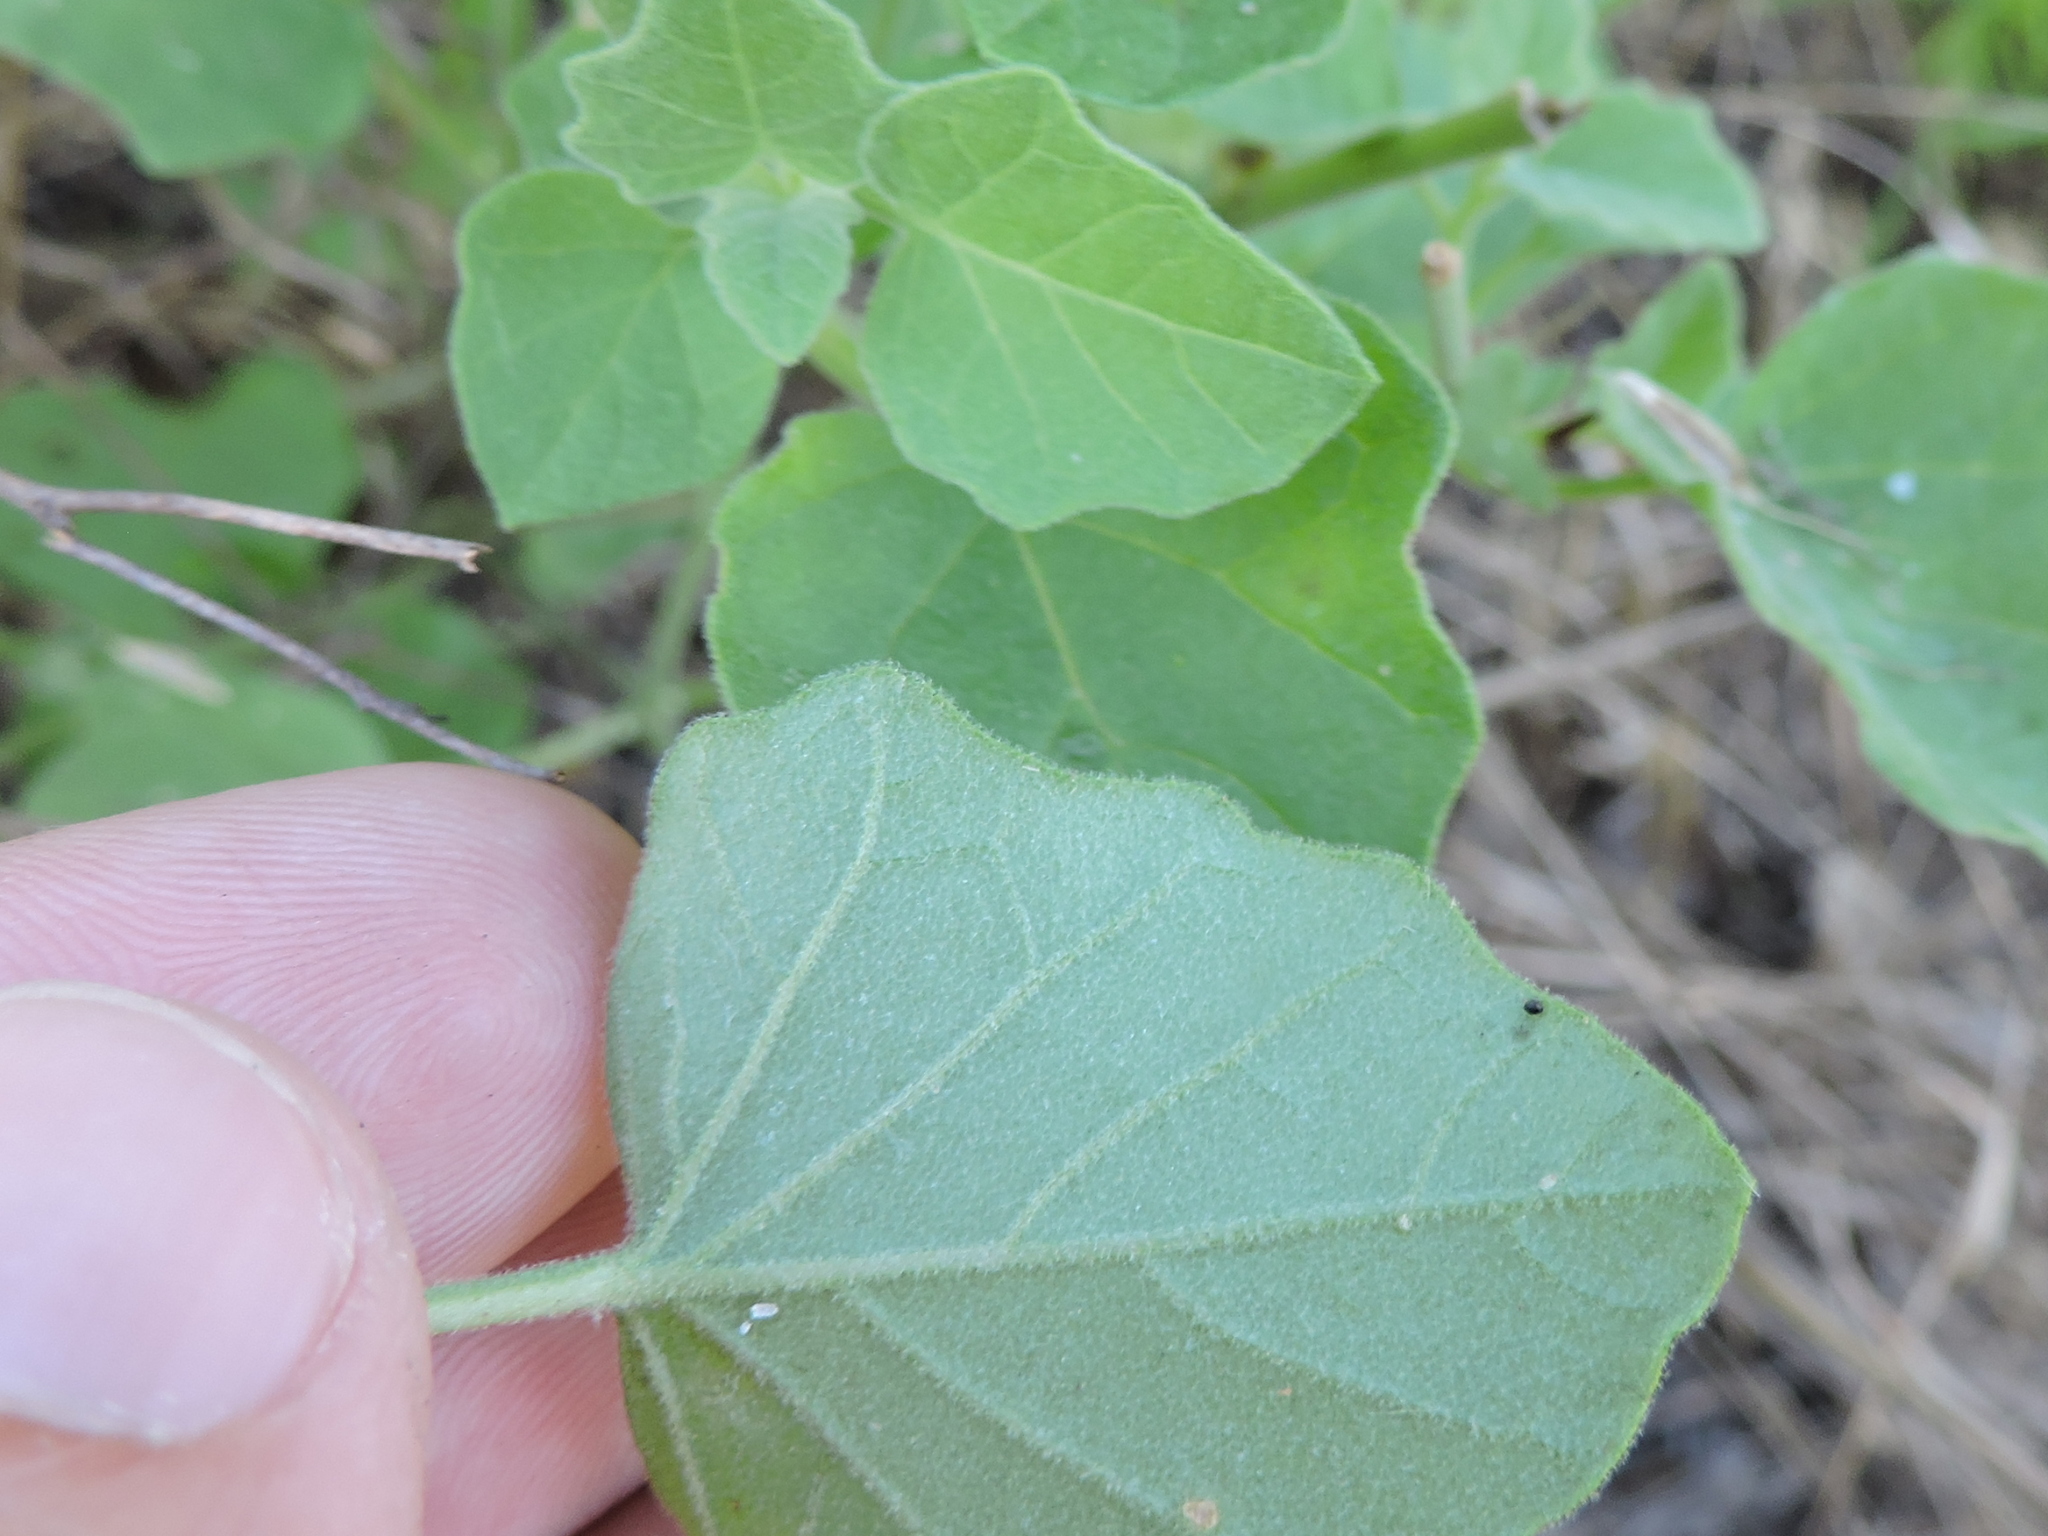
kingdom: Plantae
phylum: Tracheophyta
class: Magnoliopsida
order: Solanales
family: Solanaceae
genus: Physalis
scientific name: Physalis cinerascens
